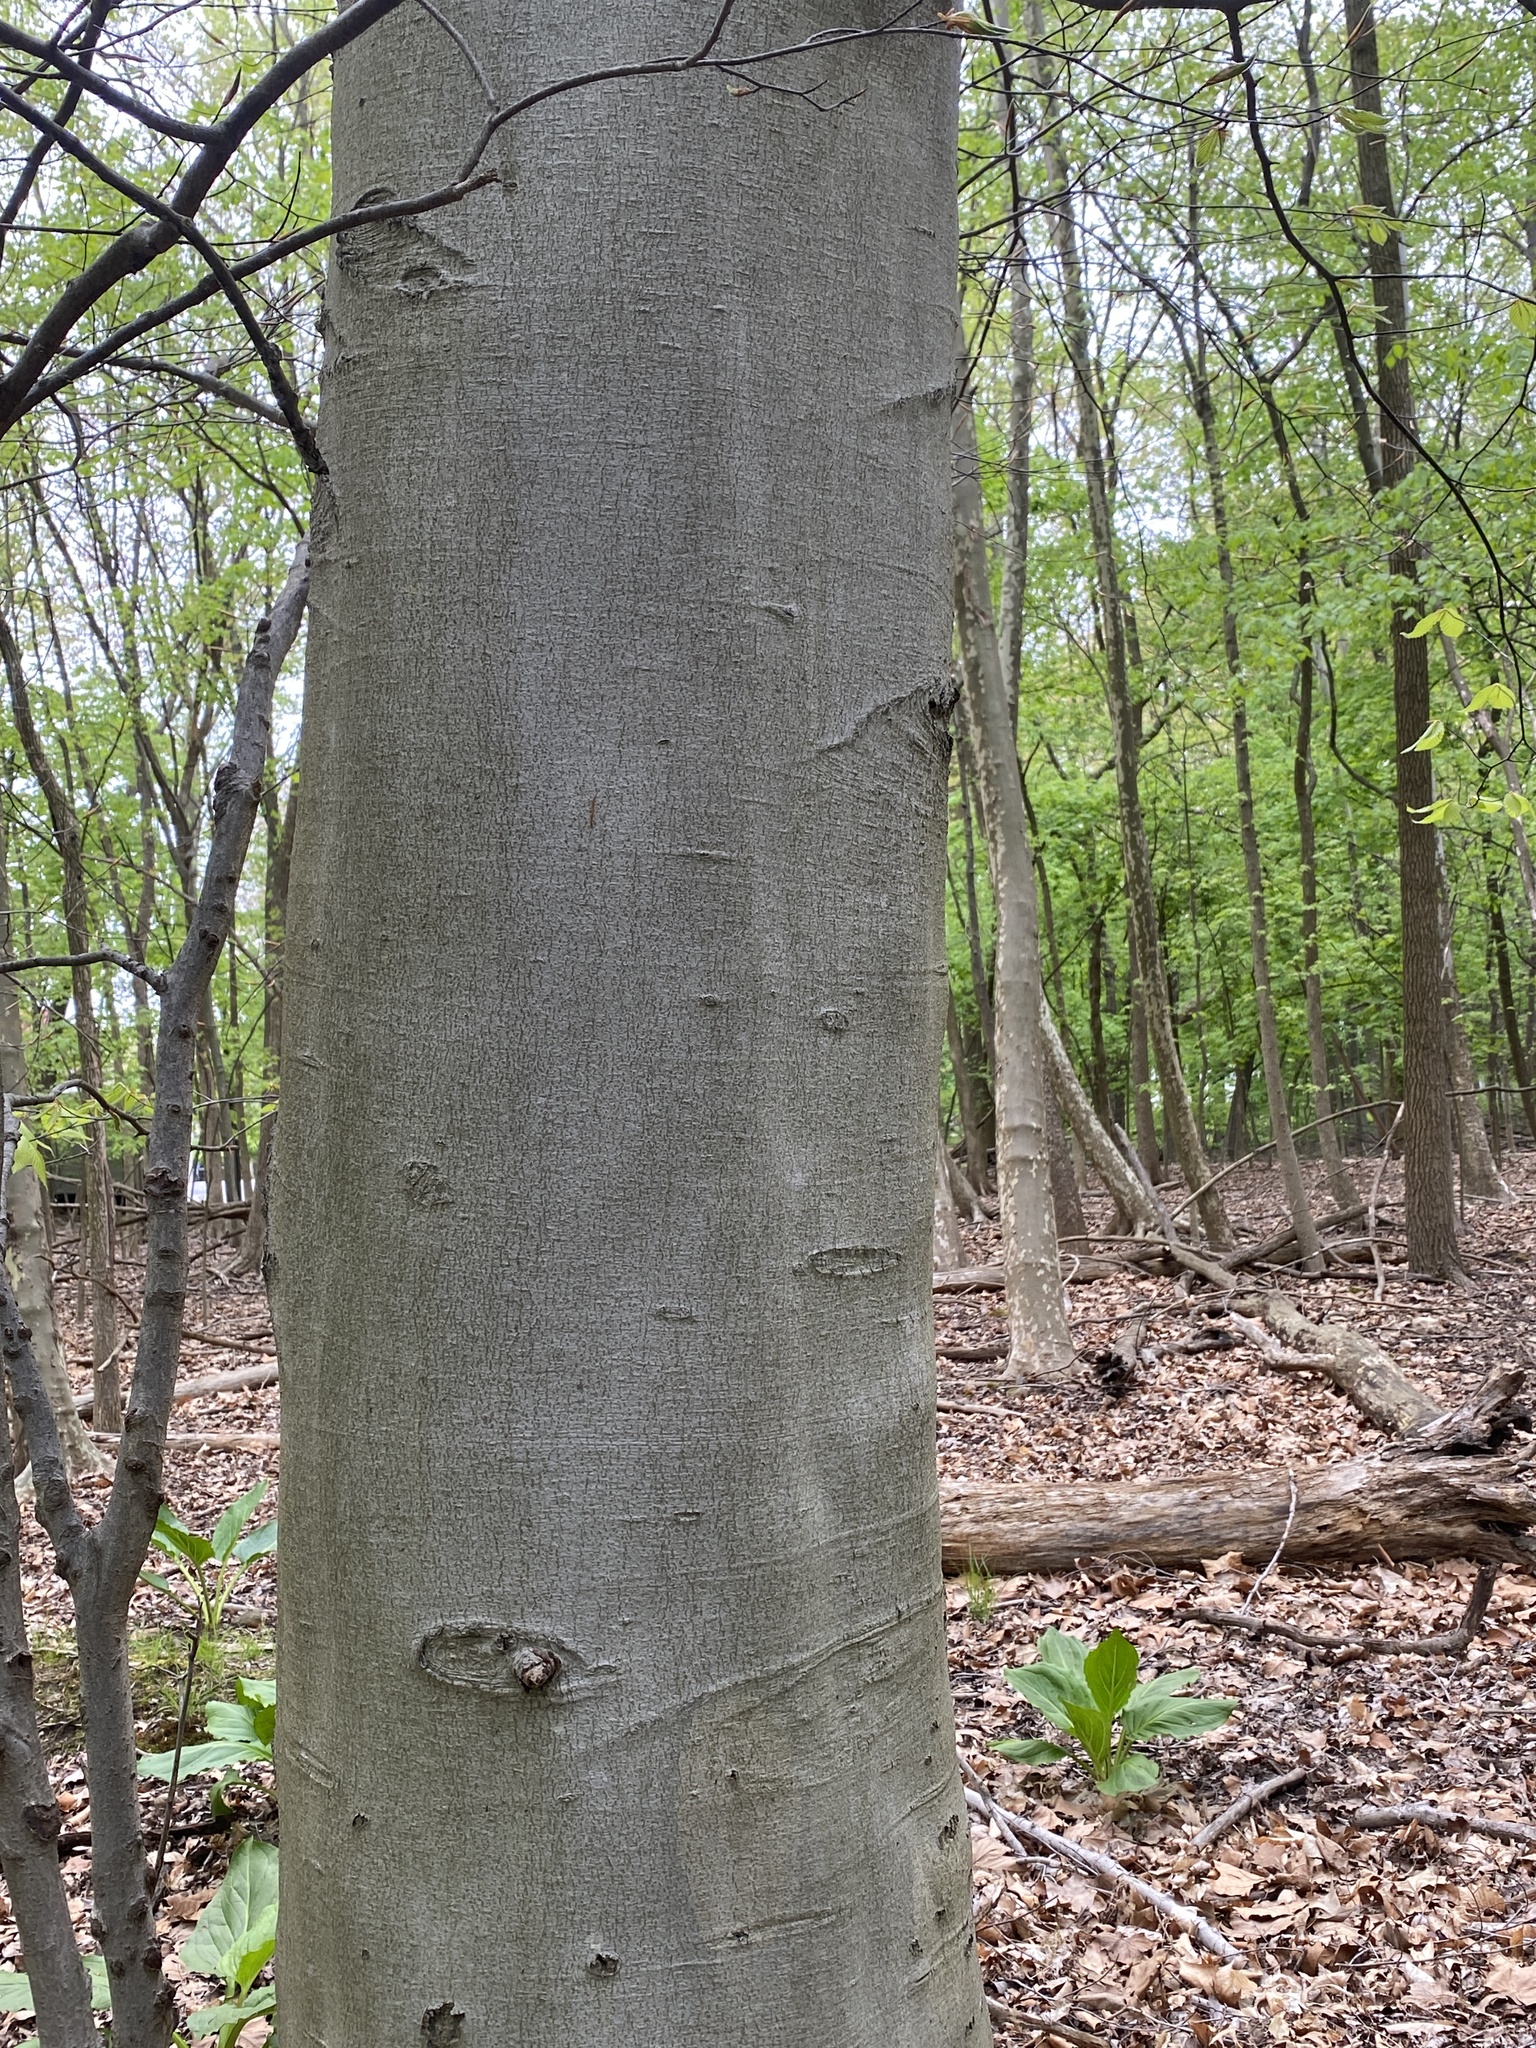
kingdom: Plantae
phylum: Tracheophyta
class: Magnoliopsida
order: Fagales
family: Fagaceae
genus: Fagus
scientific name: Fagus grandifolia
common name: American beech
